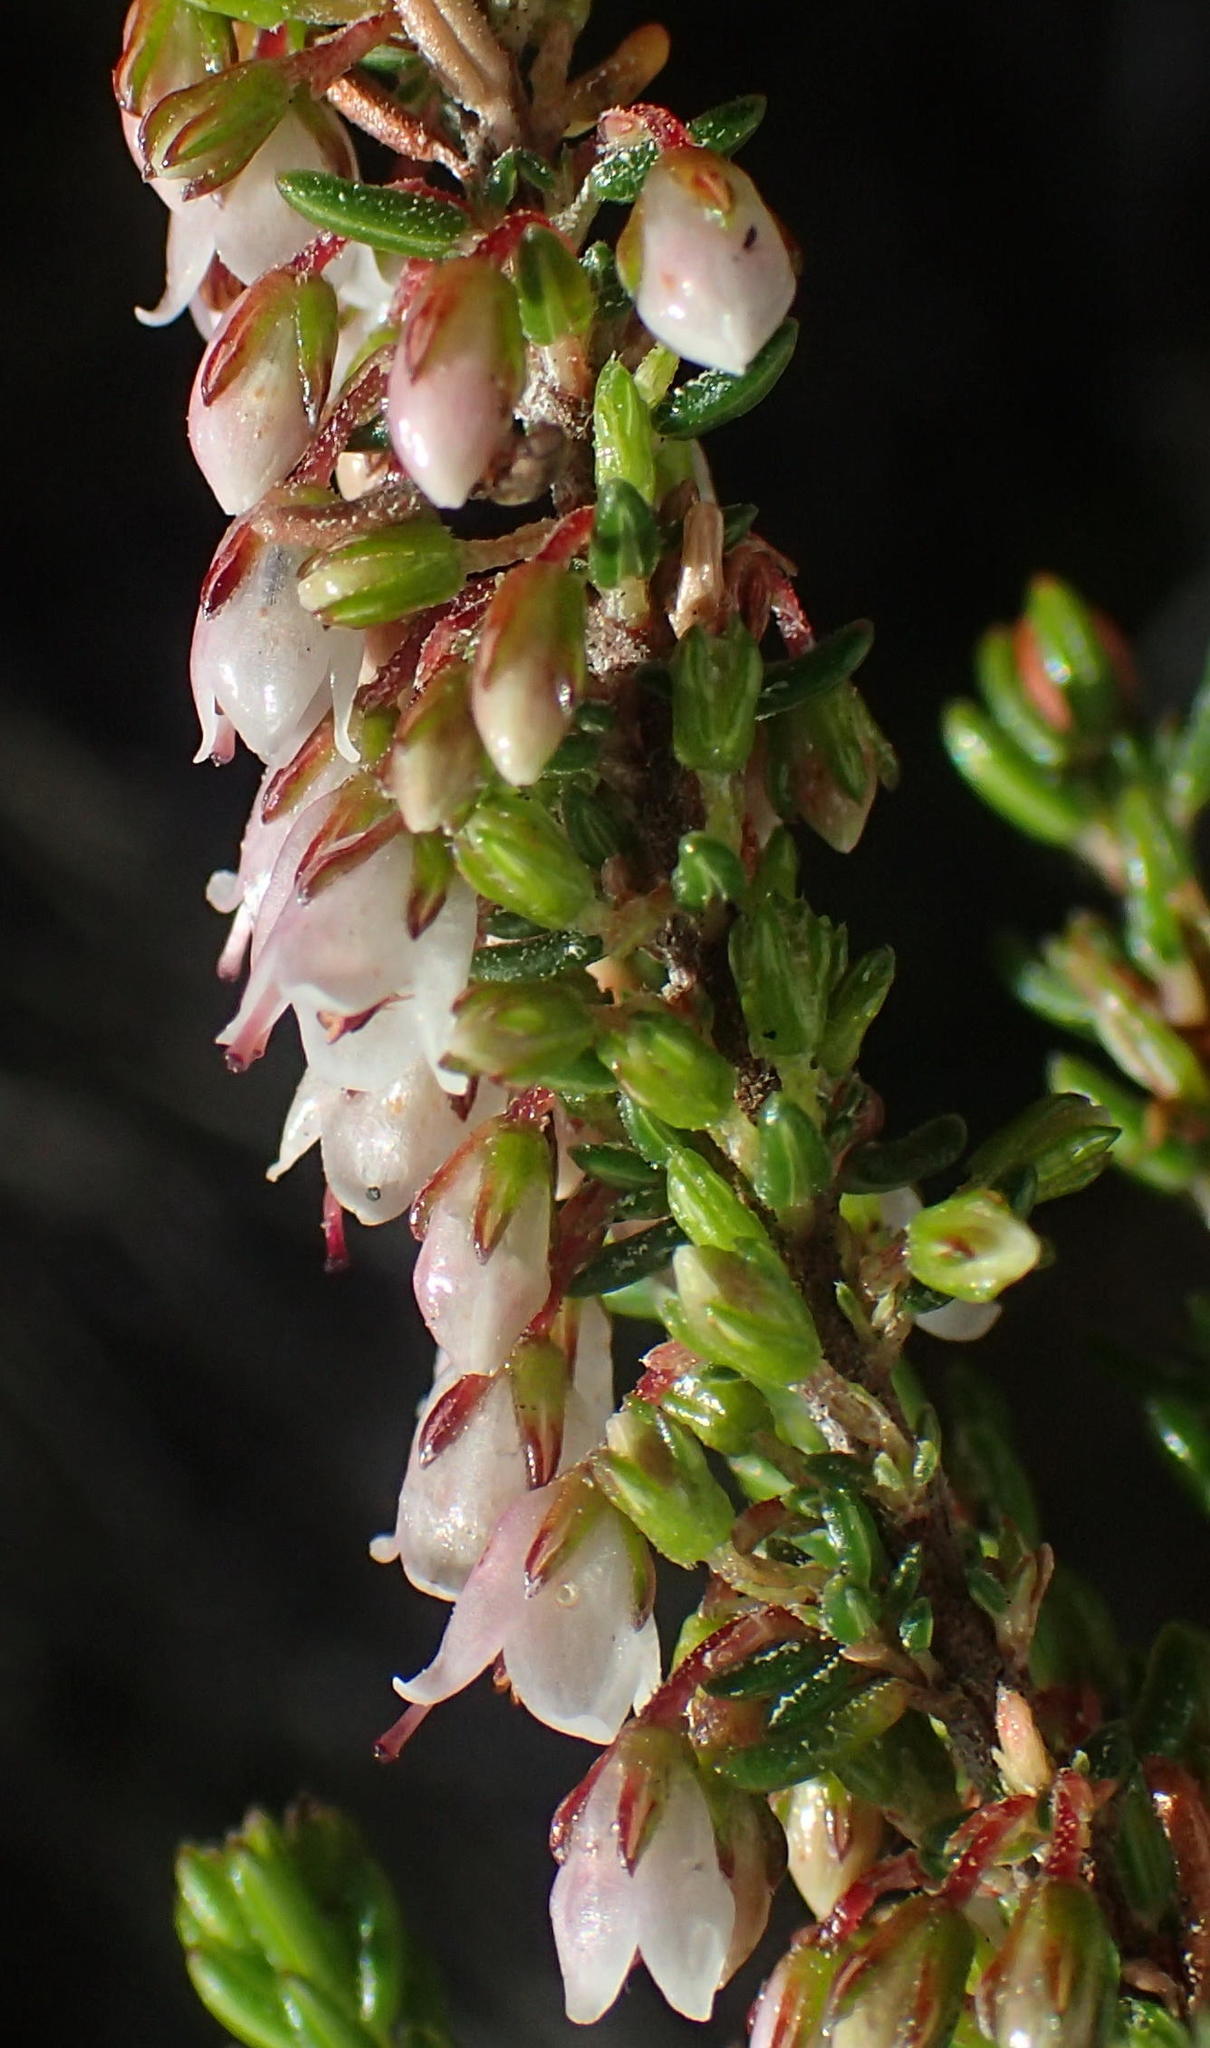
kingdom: Plantae
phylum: Tracheophyta
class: Magnoliopsida
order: Ericales
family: Ericaceae
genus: Erica
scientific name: Erica tenuis
